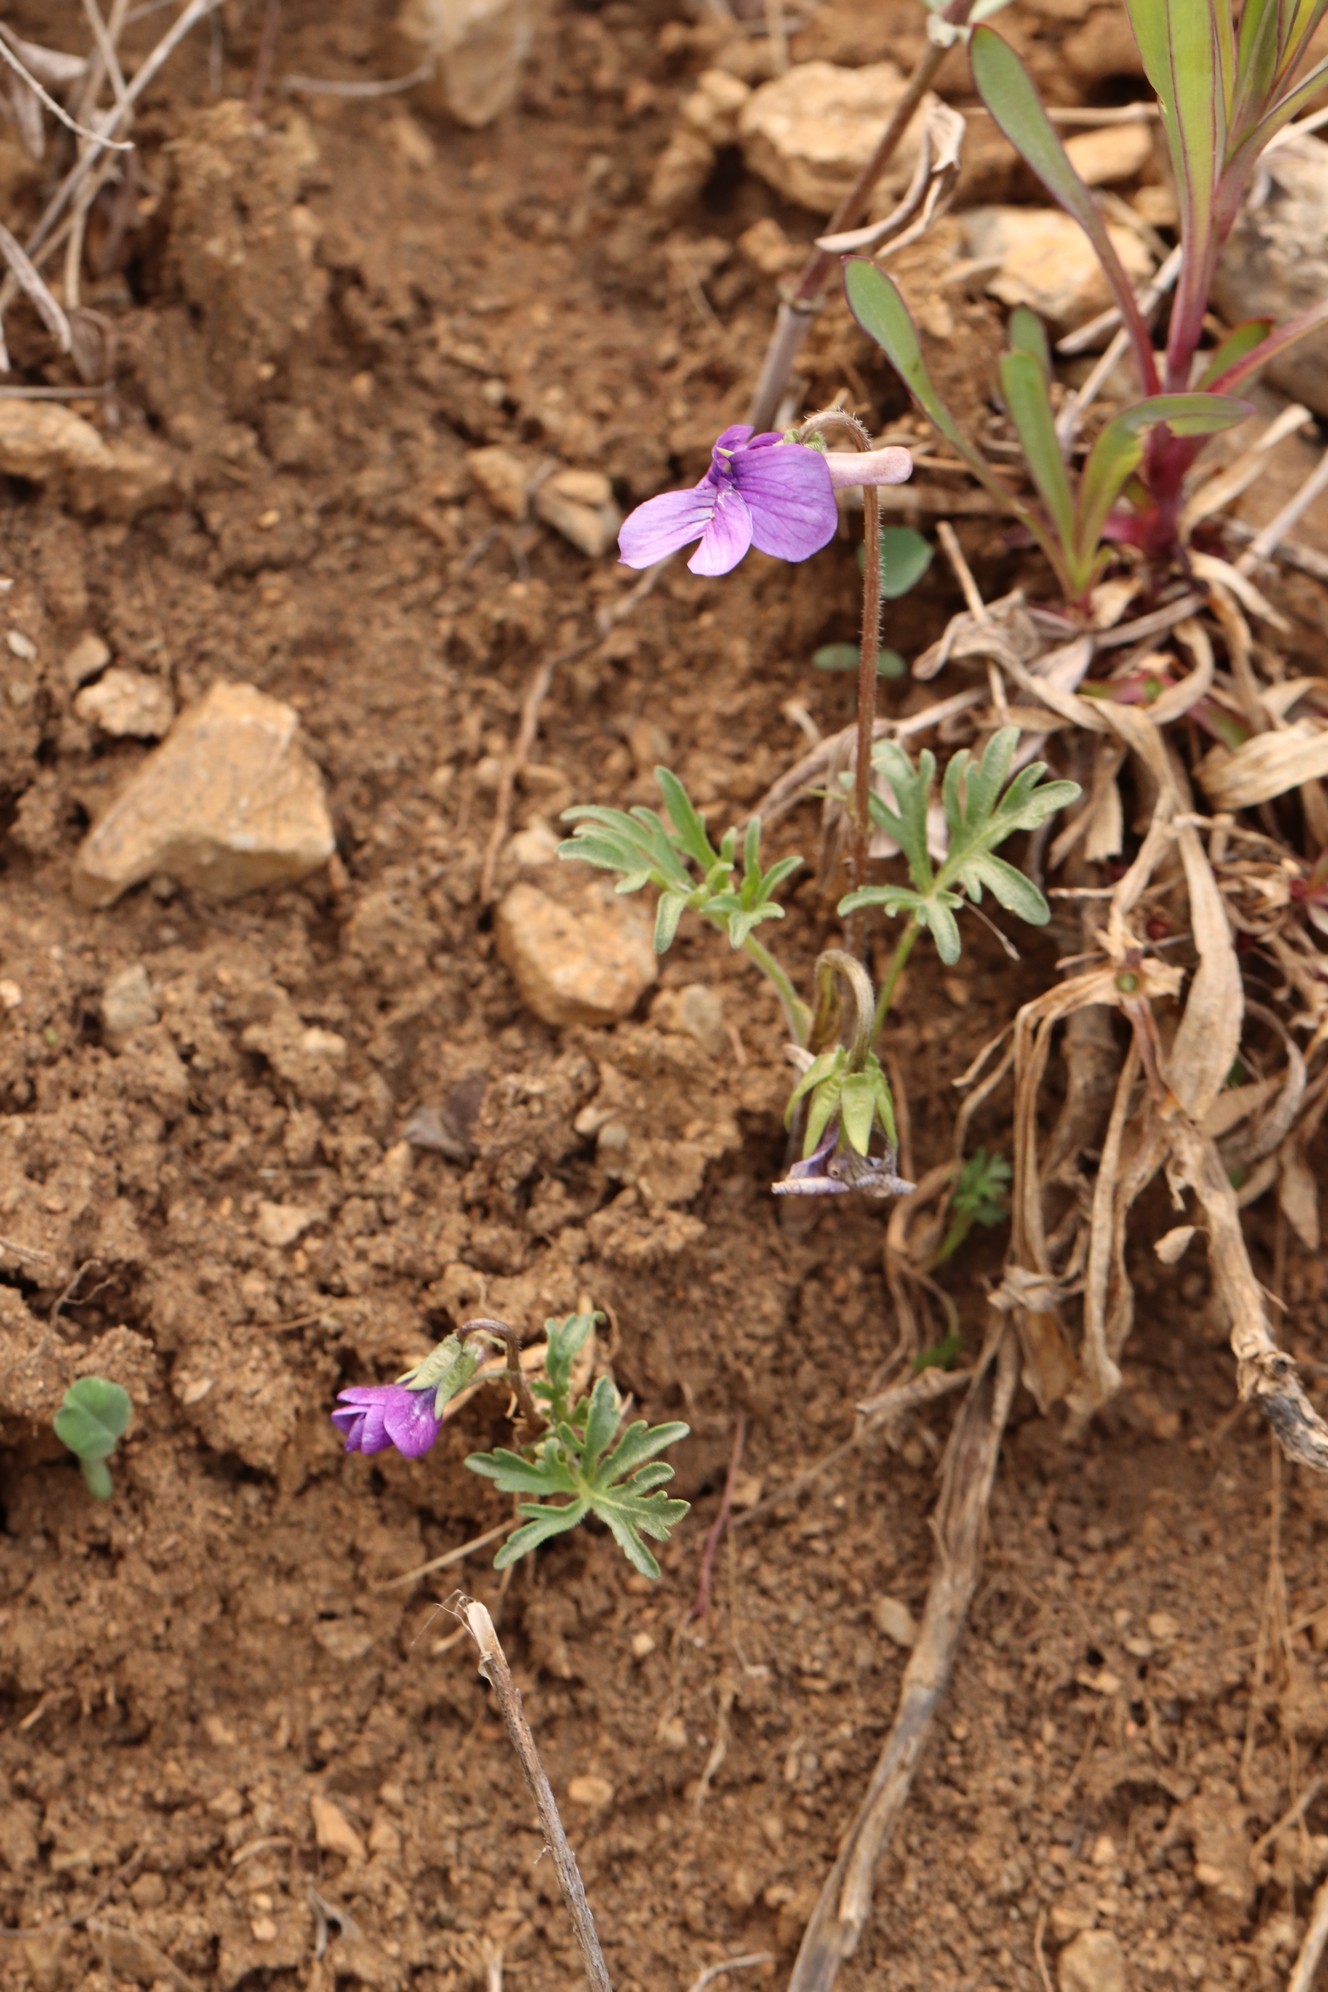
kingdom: Plantae
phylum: Tracheophyta
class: Magnoliopsida
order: Malpighiales
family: Violaceae
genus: Viola
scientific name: Viola multifida
